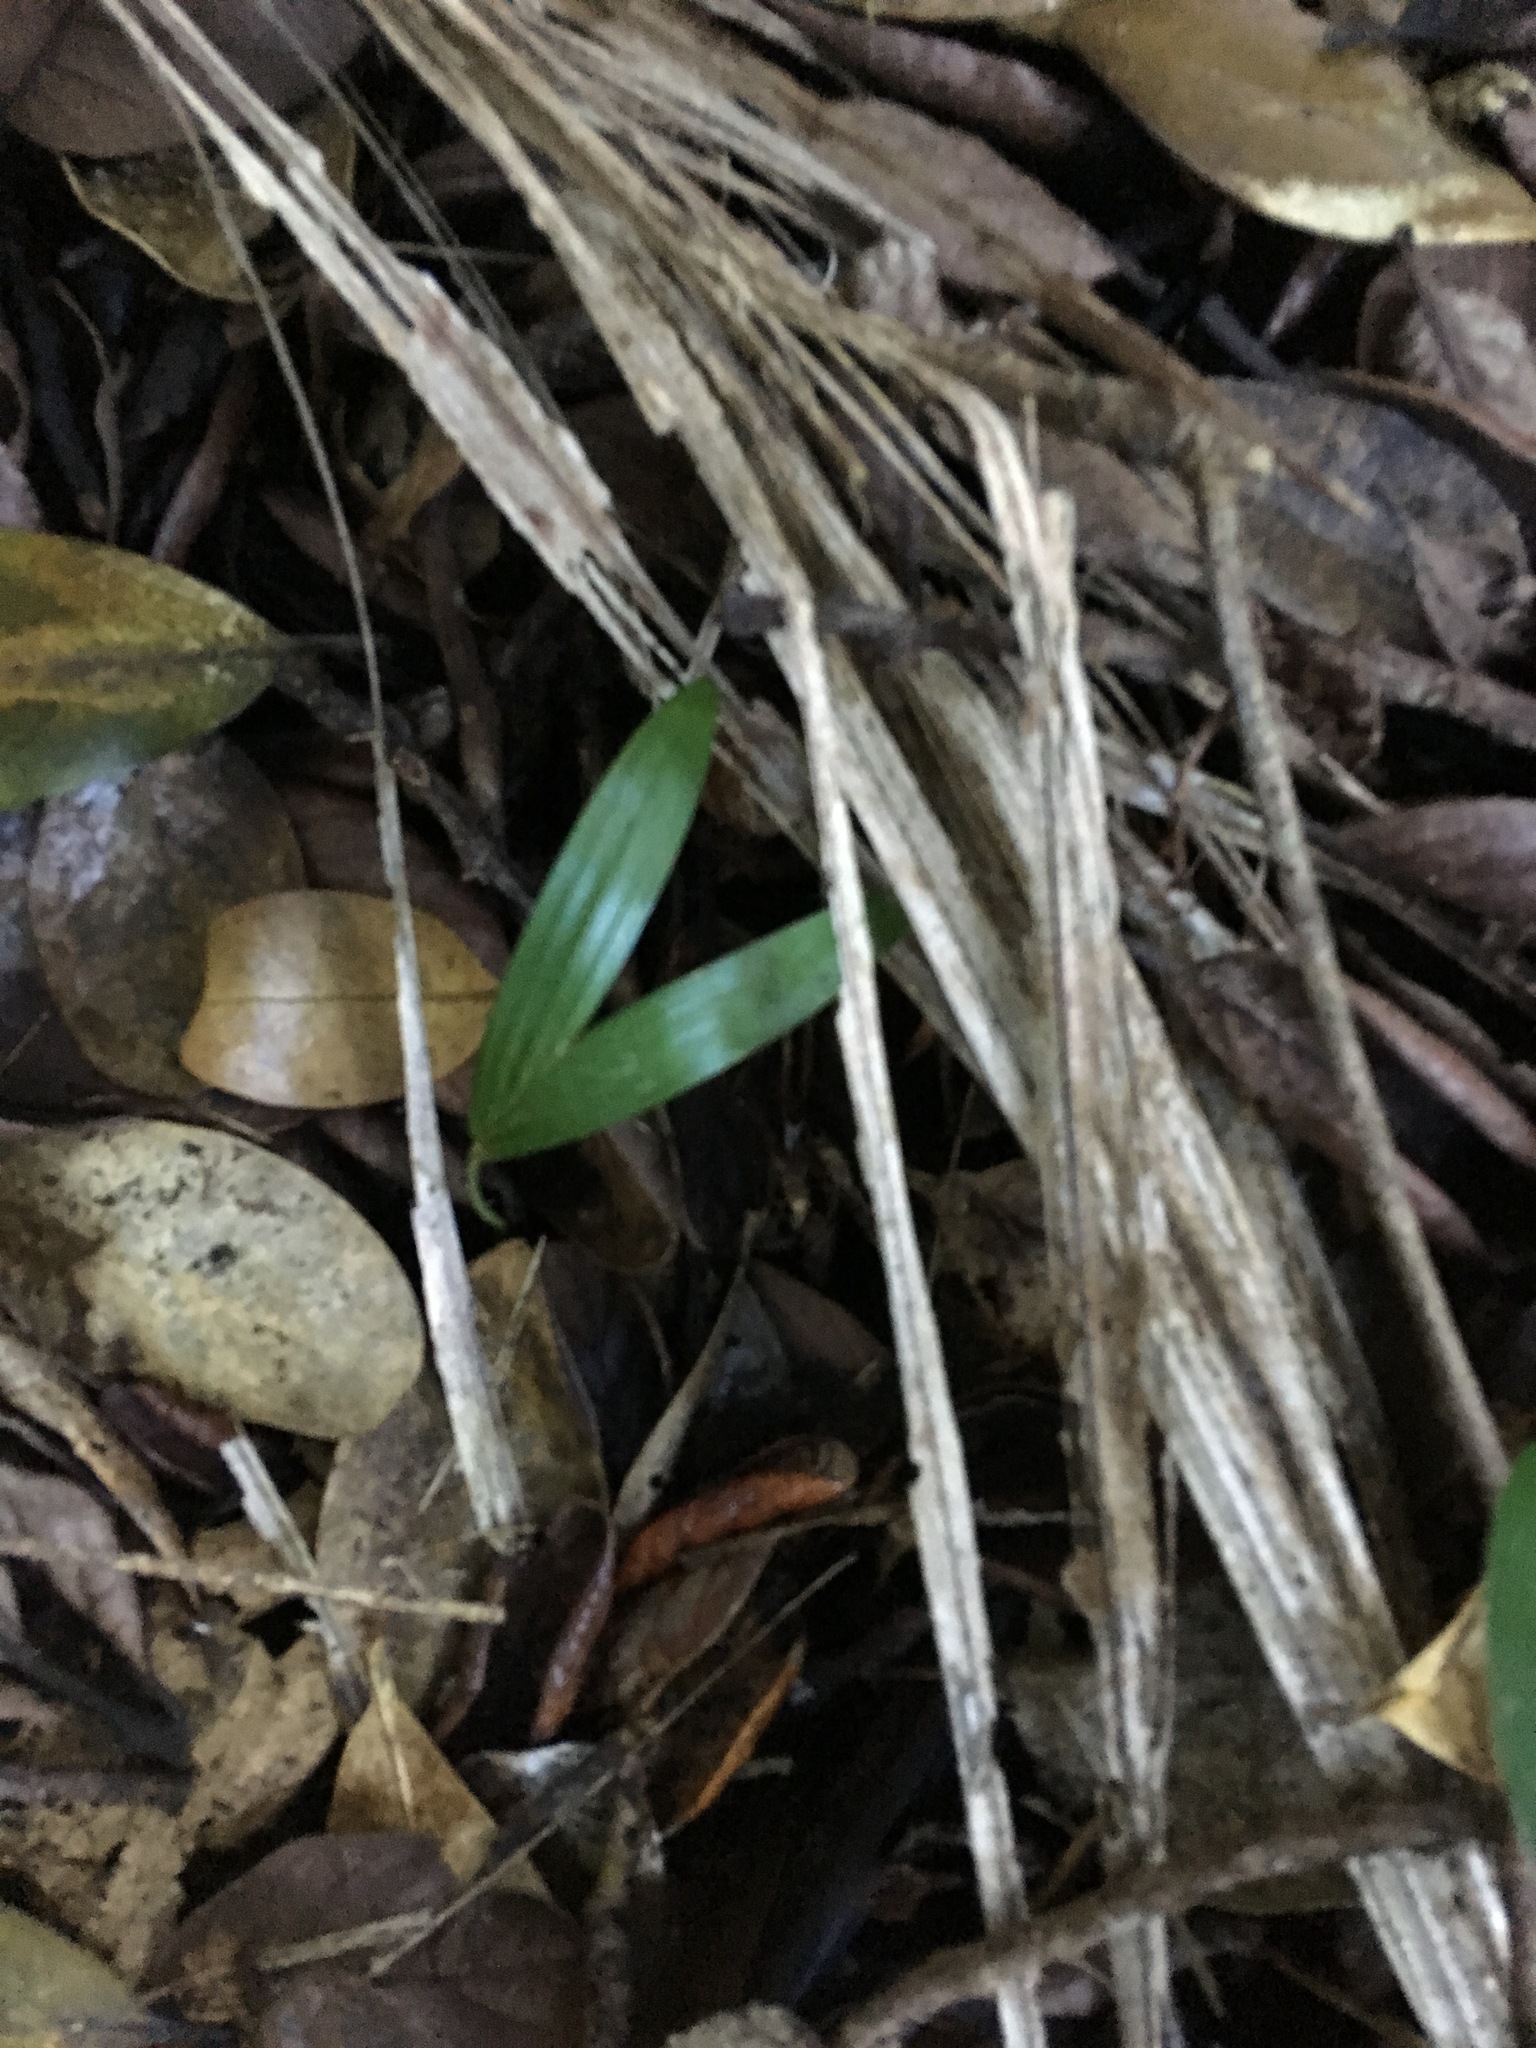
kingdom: Plantae
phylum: Tracheophyta
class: Liliopsida
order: Arecales
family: Arecaceae
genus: Rhopalostylis
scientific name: Rhopalostylis sapida
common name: Feather-duster palm
